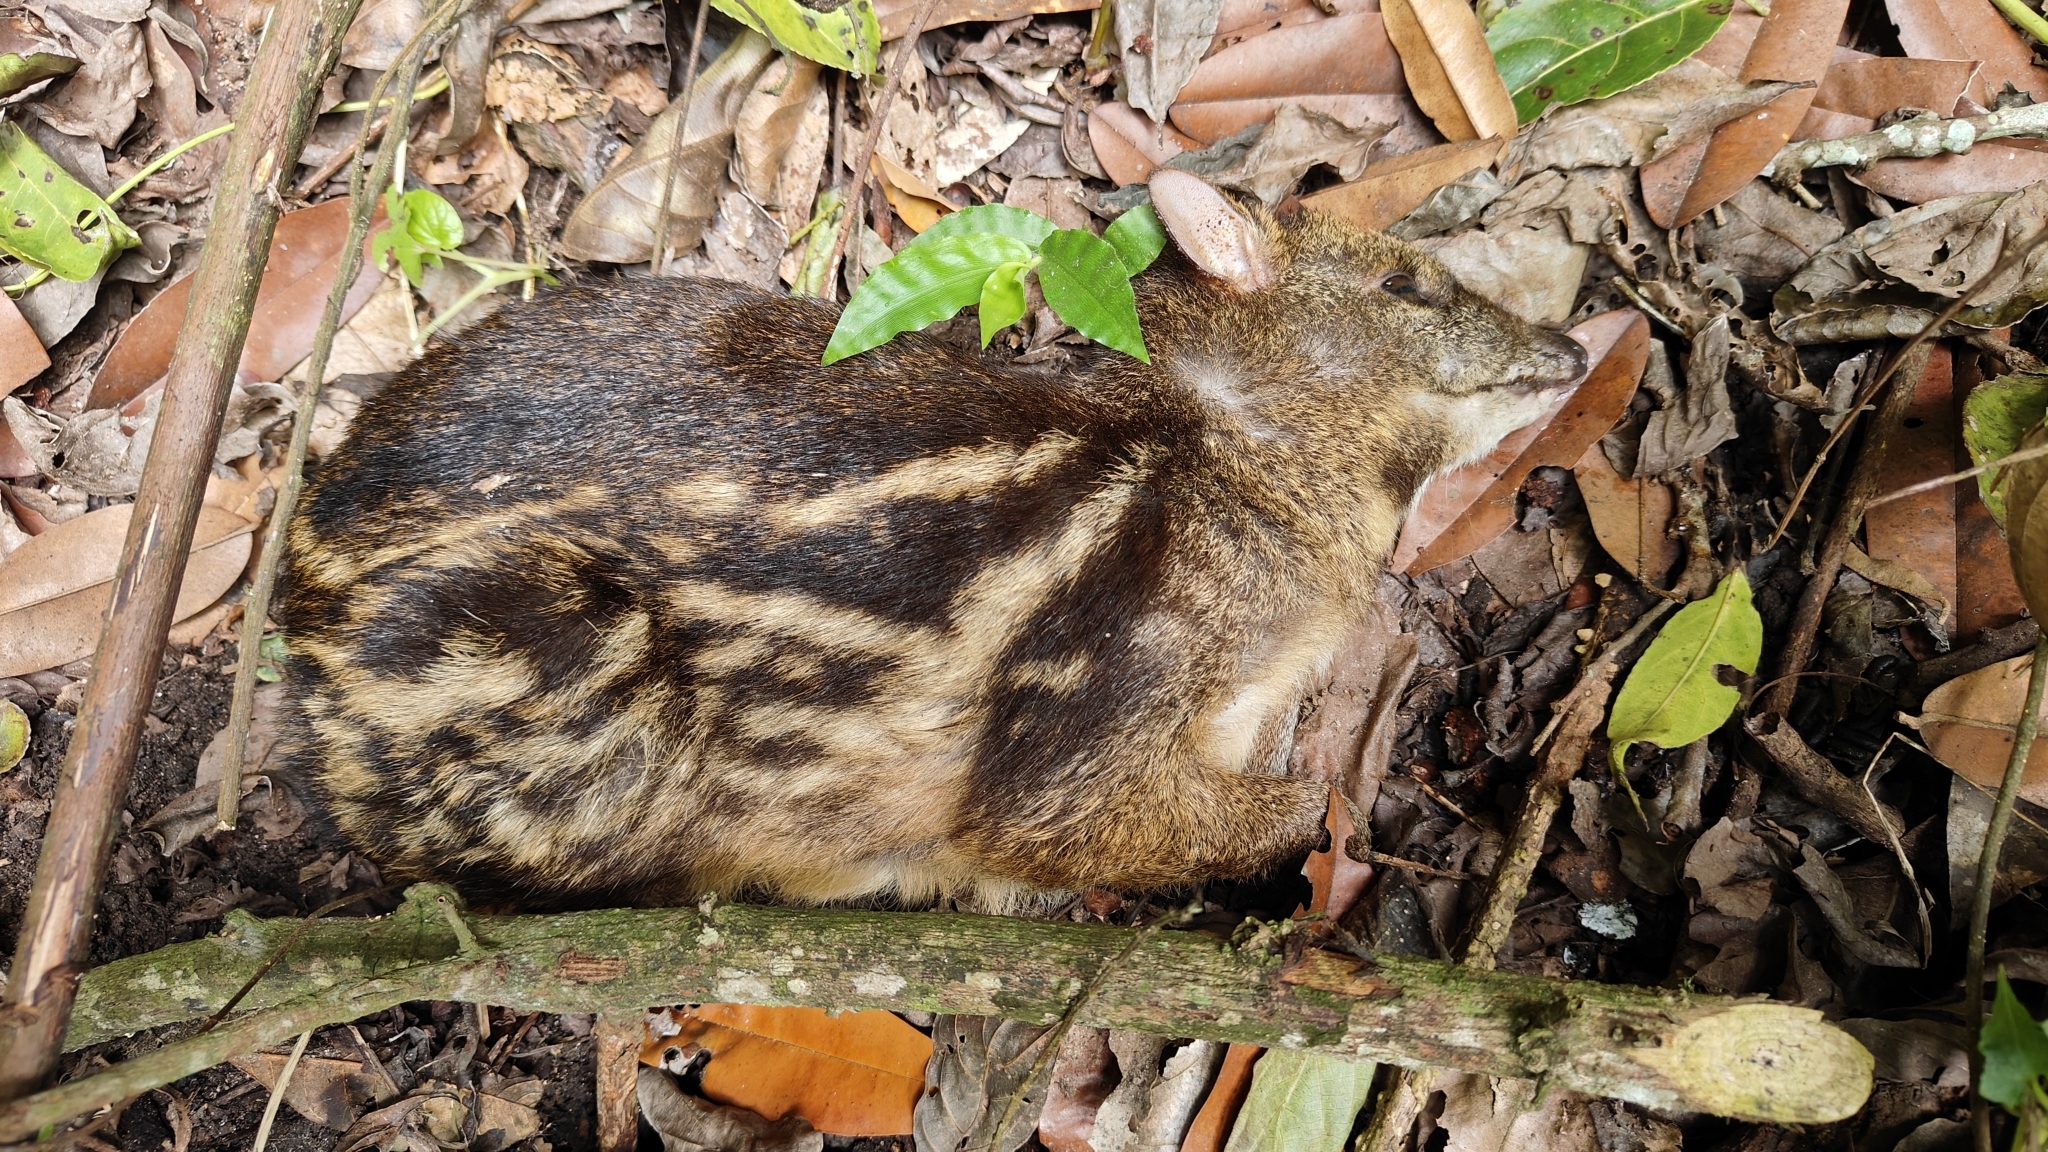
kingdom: Animalia
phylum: Chordata
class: Mammalia
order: Artiodactyla
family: Tragulidae
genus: Moschiola
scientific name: Moschiola indica
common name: Indian chevrotain
